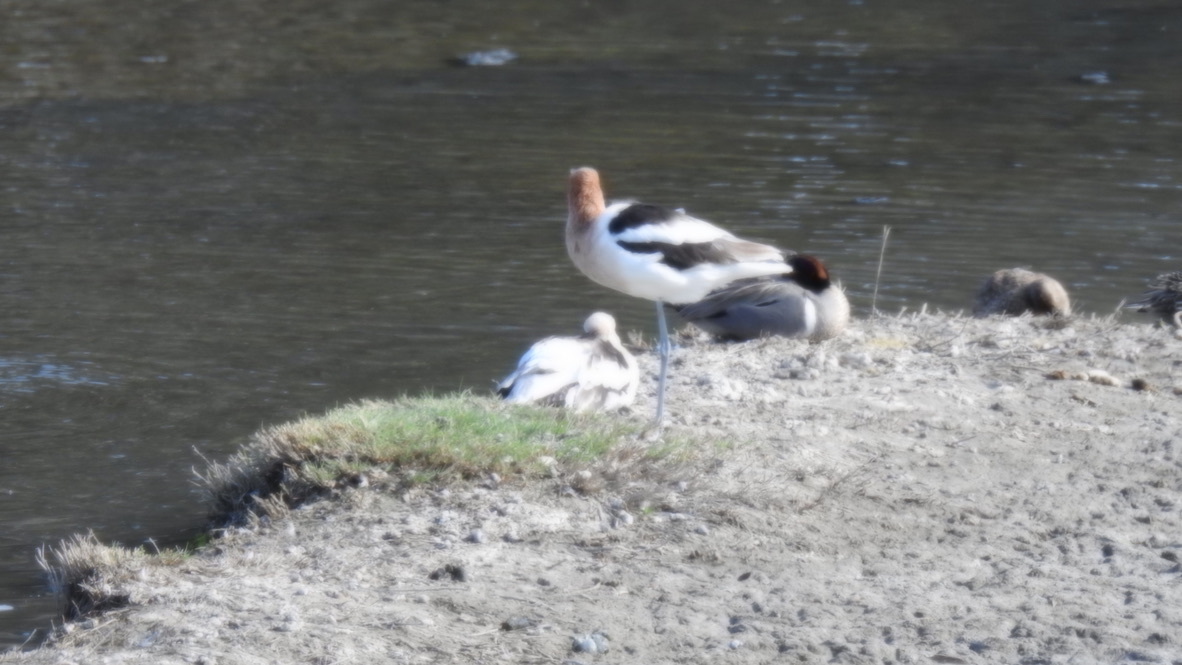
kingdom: Animalia
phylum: Chordata
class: Aves
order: Charadriiformes
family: Recurvirostridae
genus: Recurvirostra
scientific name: Recurvirostra americana
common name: American avocet
